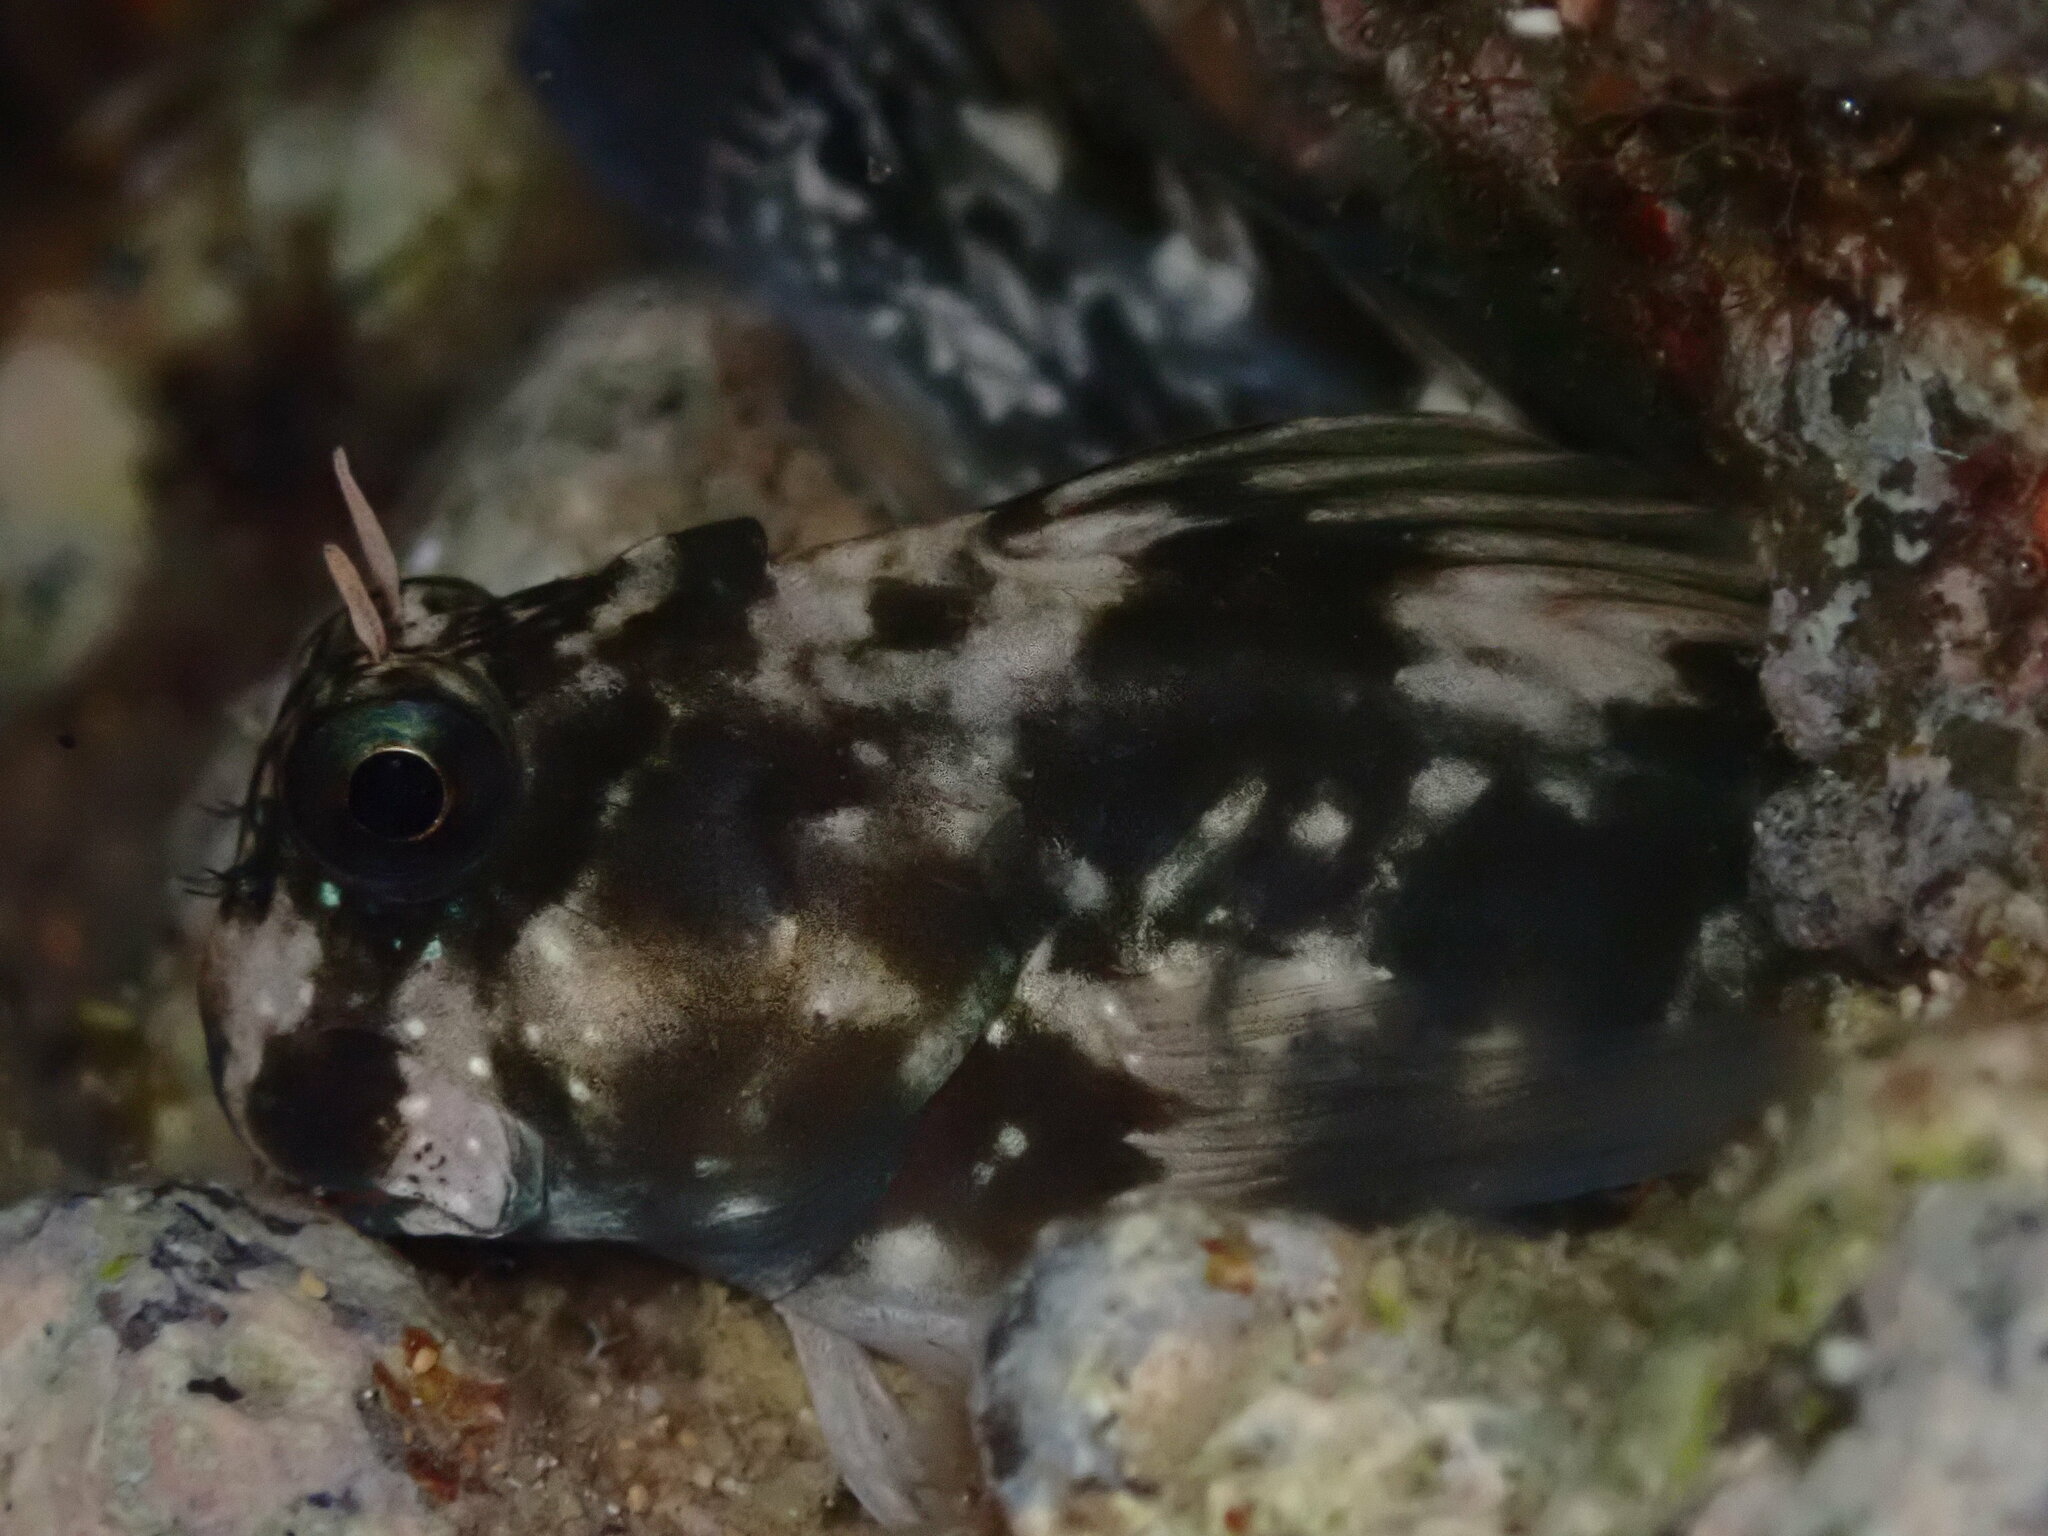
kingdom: Animalia
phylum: Chordata
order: Perciformes
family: Blenniidae
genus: Istiblennius
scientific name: Istiblennius zebra
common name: Zebra blenny
